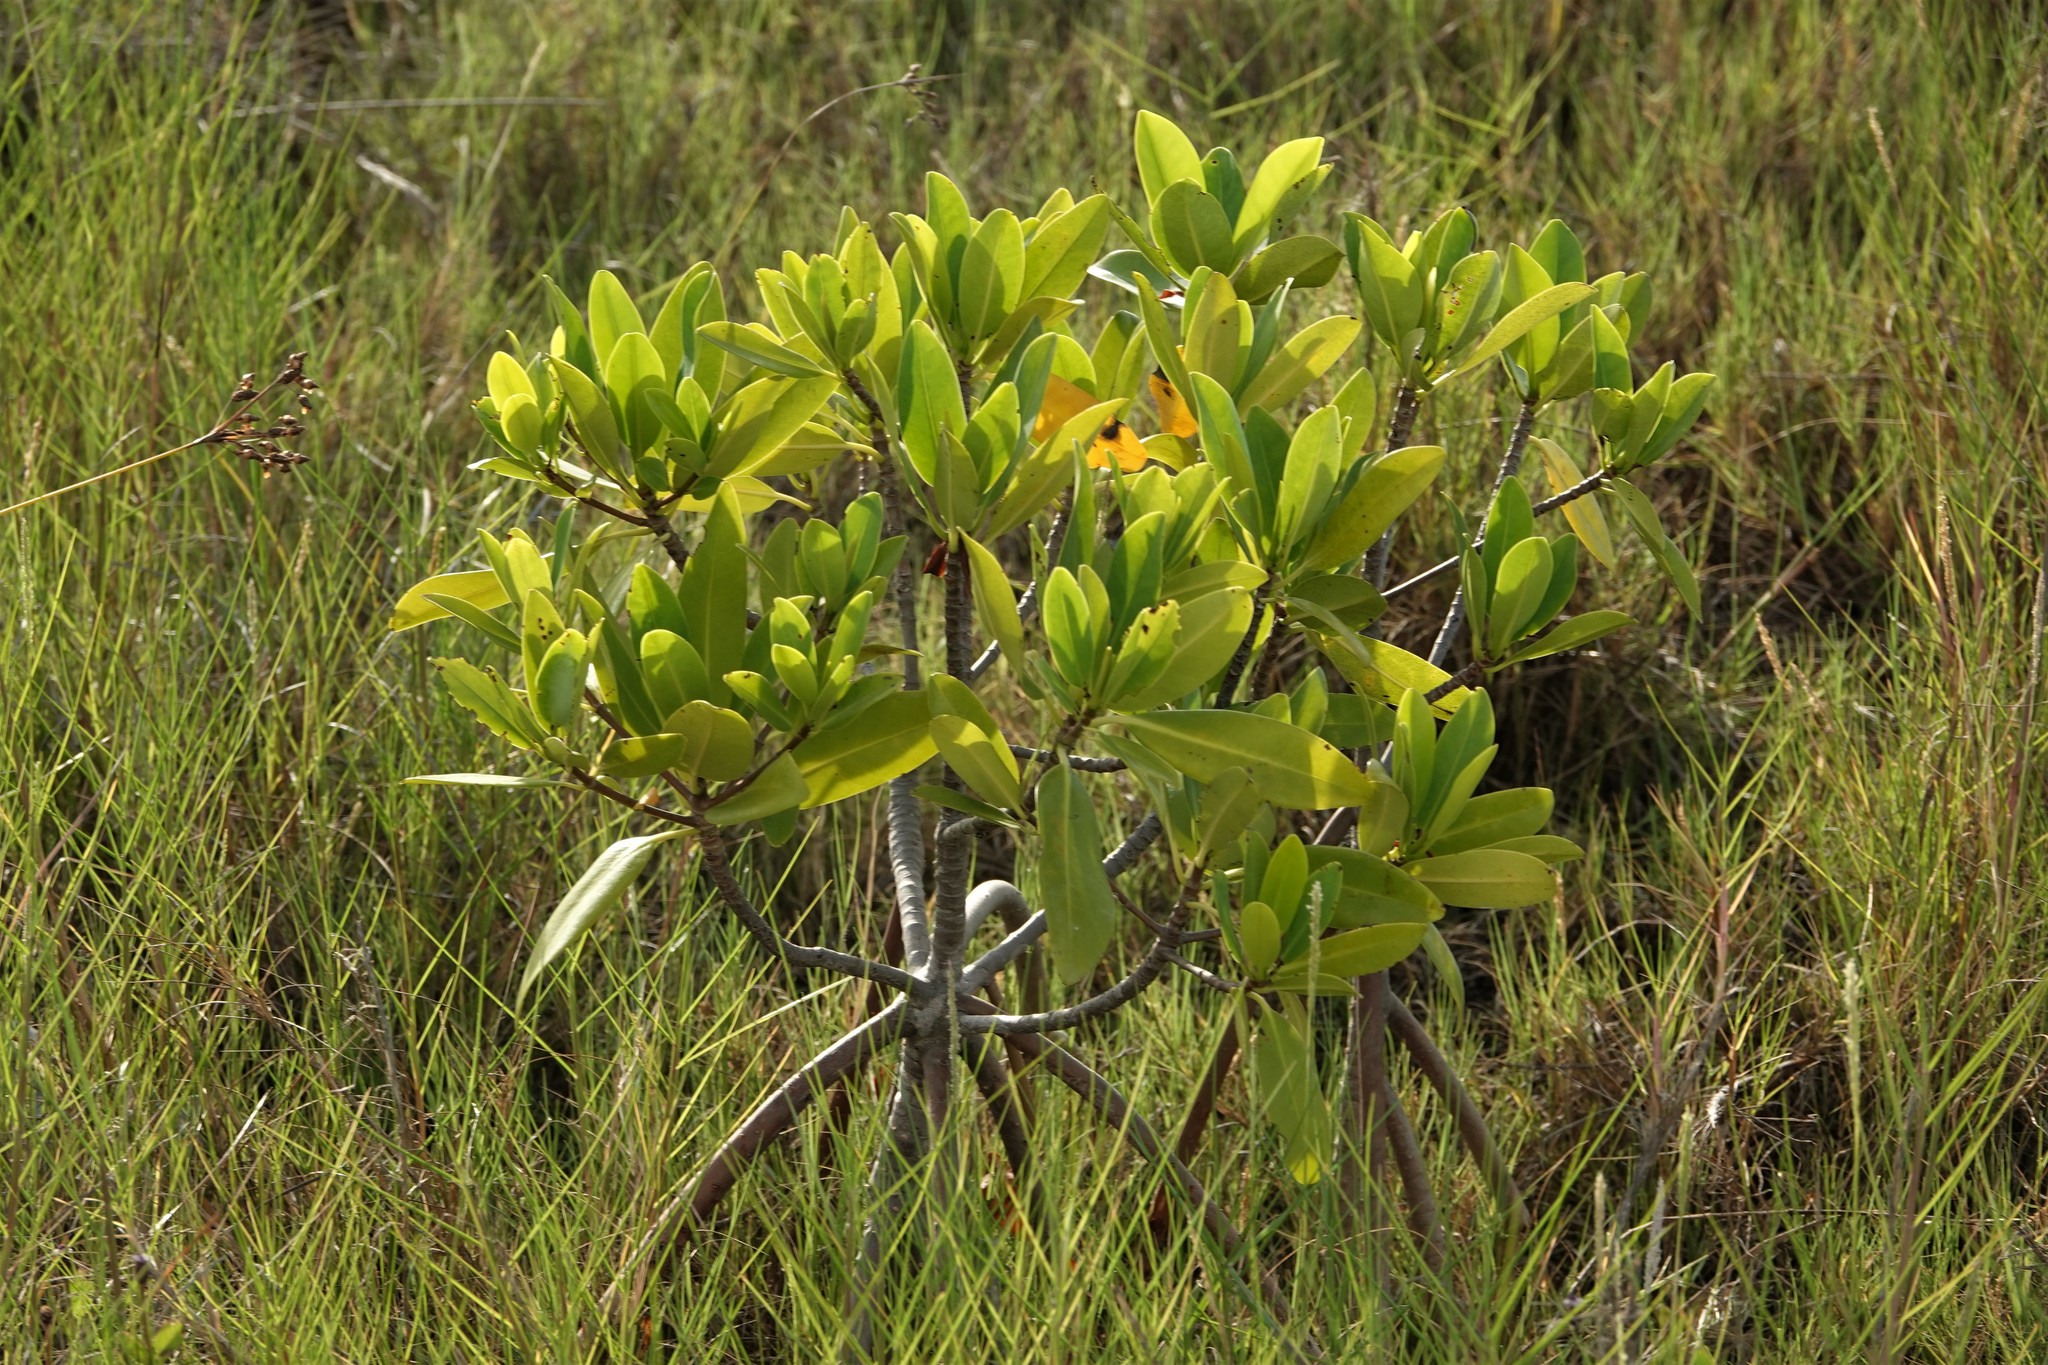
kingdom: Plantae
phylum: Tracheophyta
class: Magnoliopsida
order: Malpighiales
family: Rhizophoraceae
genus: Rhizophora
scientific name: Rhizophora mangle
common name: Red mangrove
